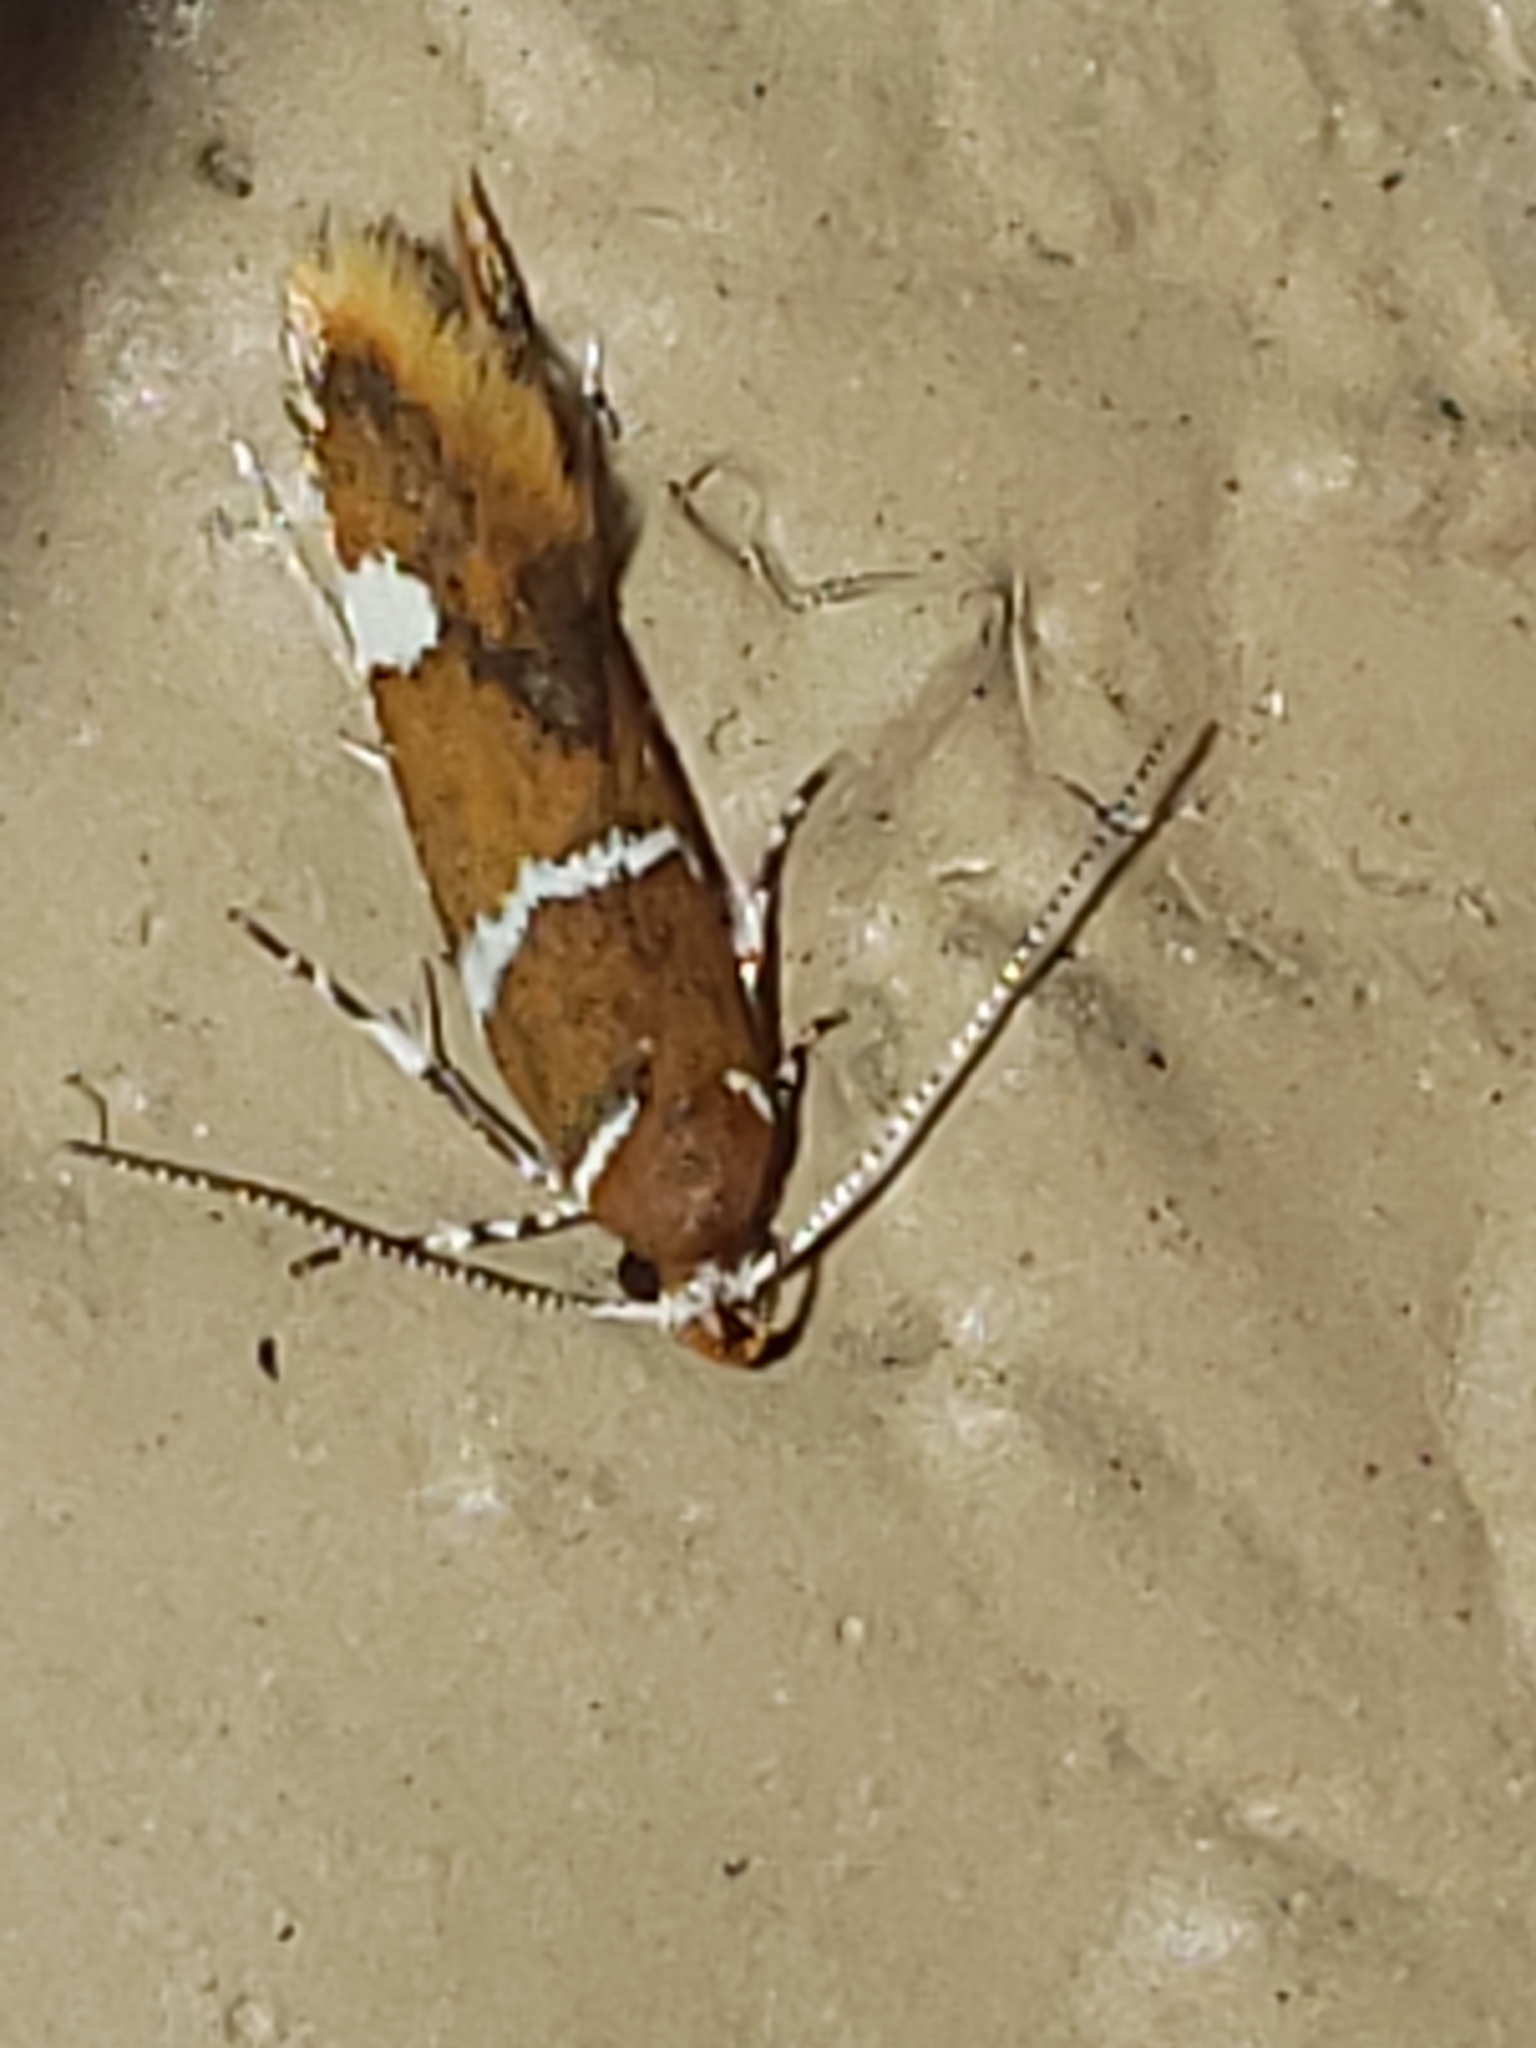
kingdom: Animalia
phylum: Arthropoda
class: Insecta
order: Lepidoptera
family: Oecophoridae
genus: Promalactis
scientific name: Promalactis suzukiella
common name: Moth
